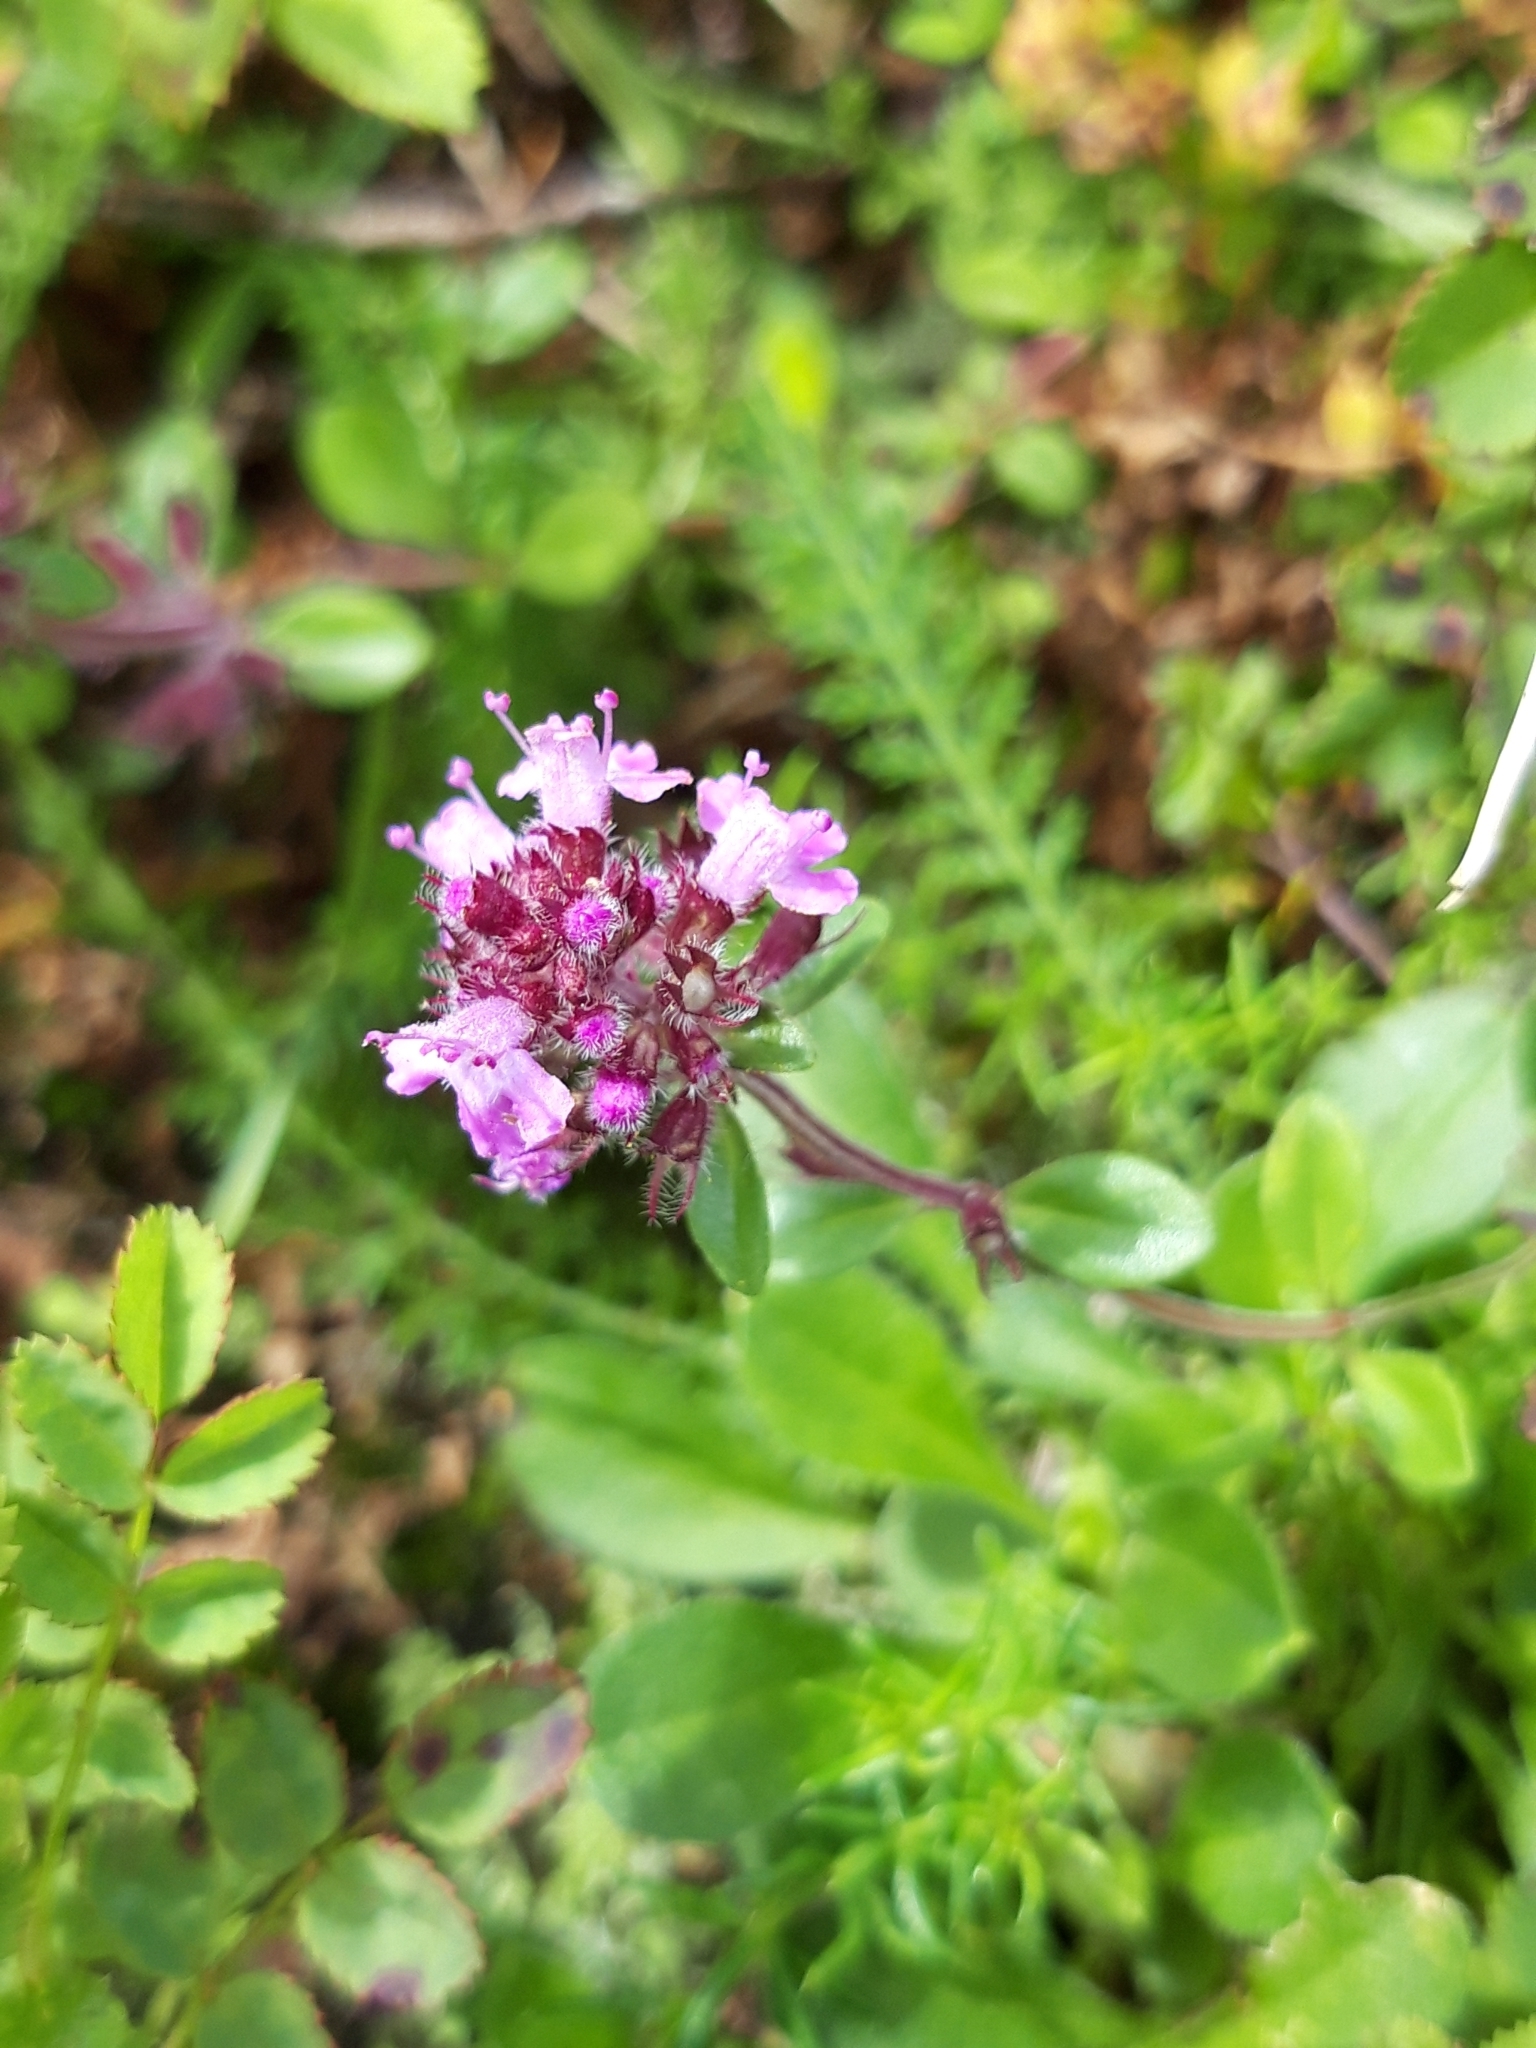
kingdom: Plantae
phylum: Tracheophyta
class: Magnoliopsida
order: Lamiales
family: Lamiaceae
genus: Thymus
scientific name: Thymus pulegioides
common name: Large thyme
